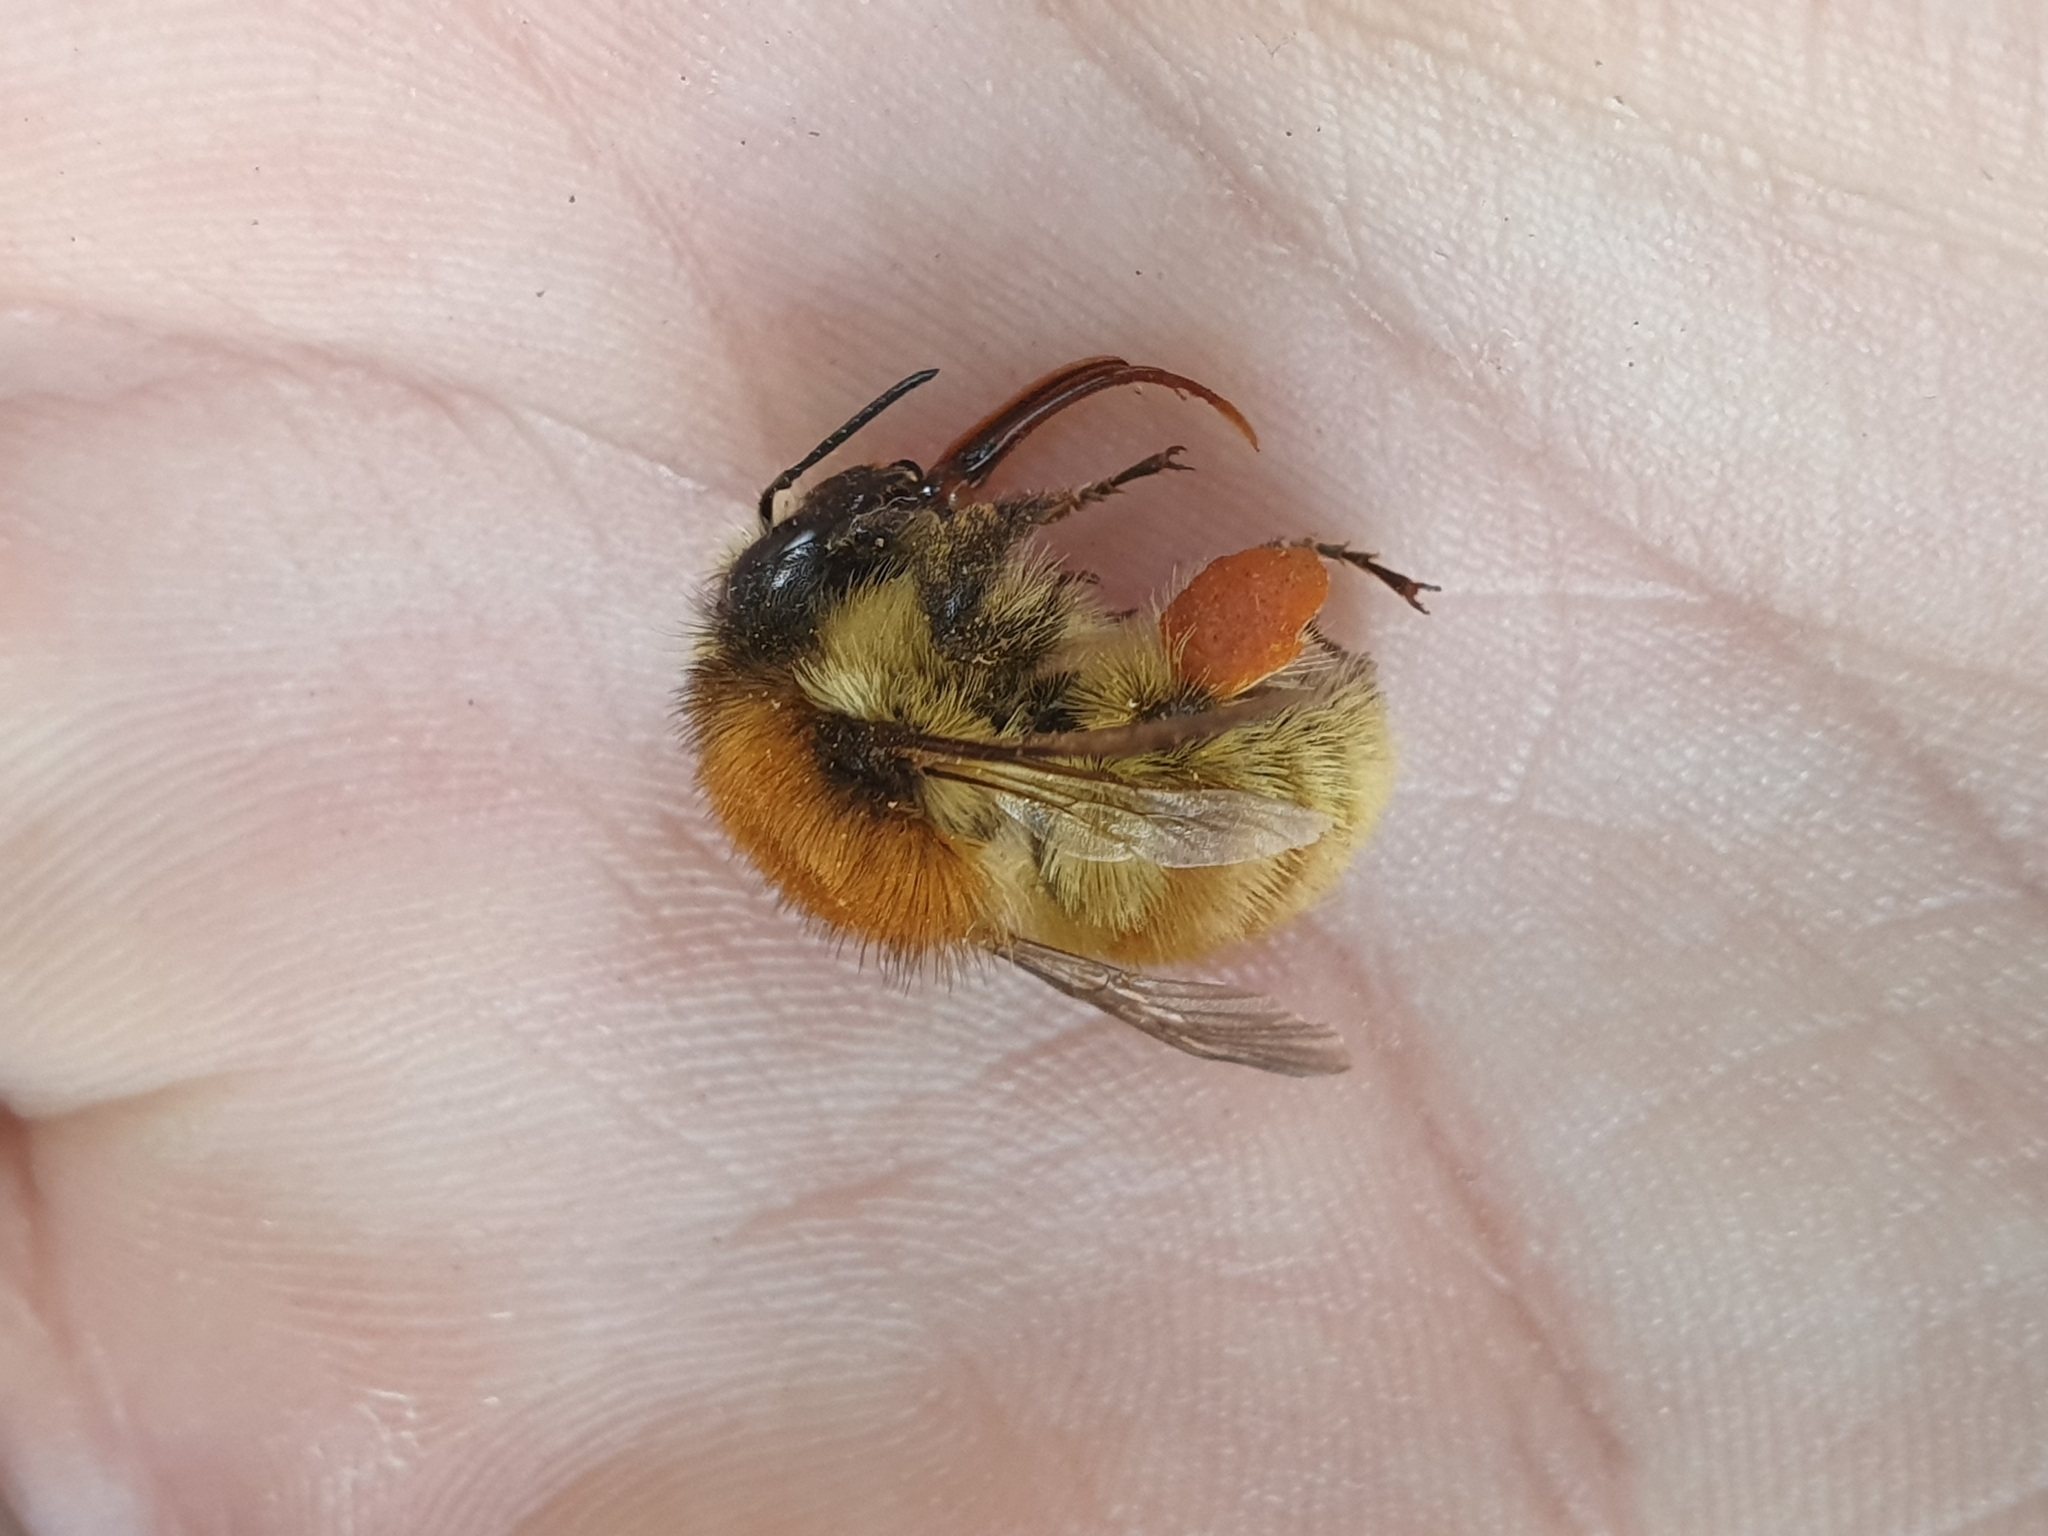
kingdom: Animalia
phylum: Arthropoda
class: Insecta
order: Hymenoptera
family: Apidae
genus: Bombus
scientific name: Bombus humilis
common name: Brown-banded carder-bee
